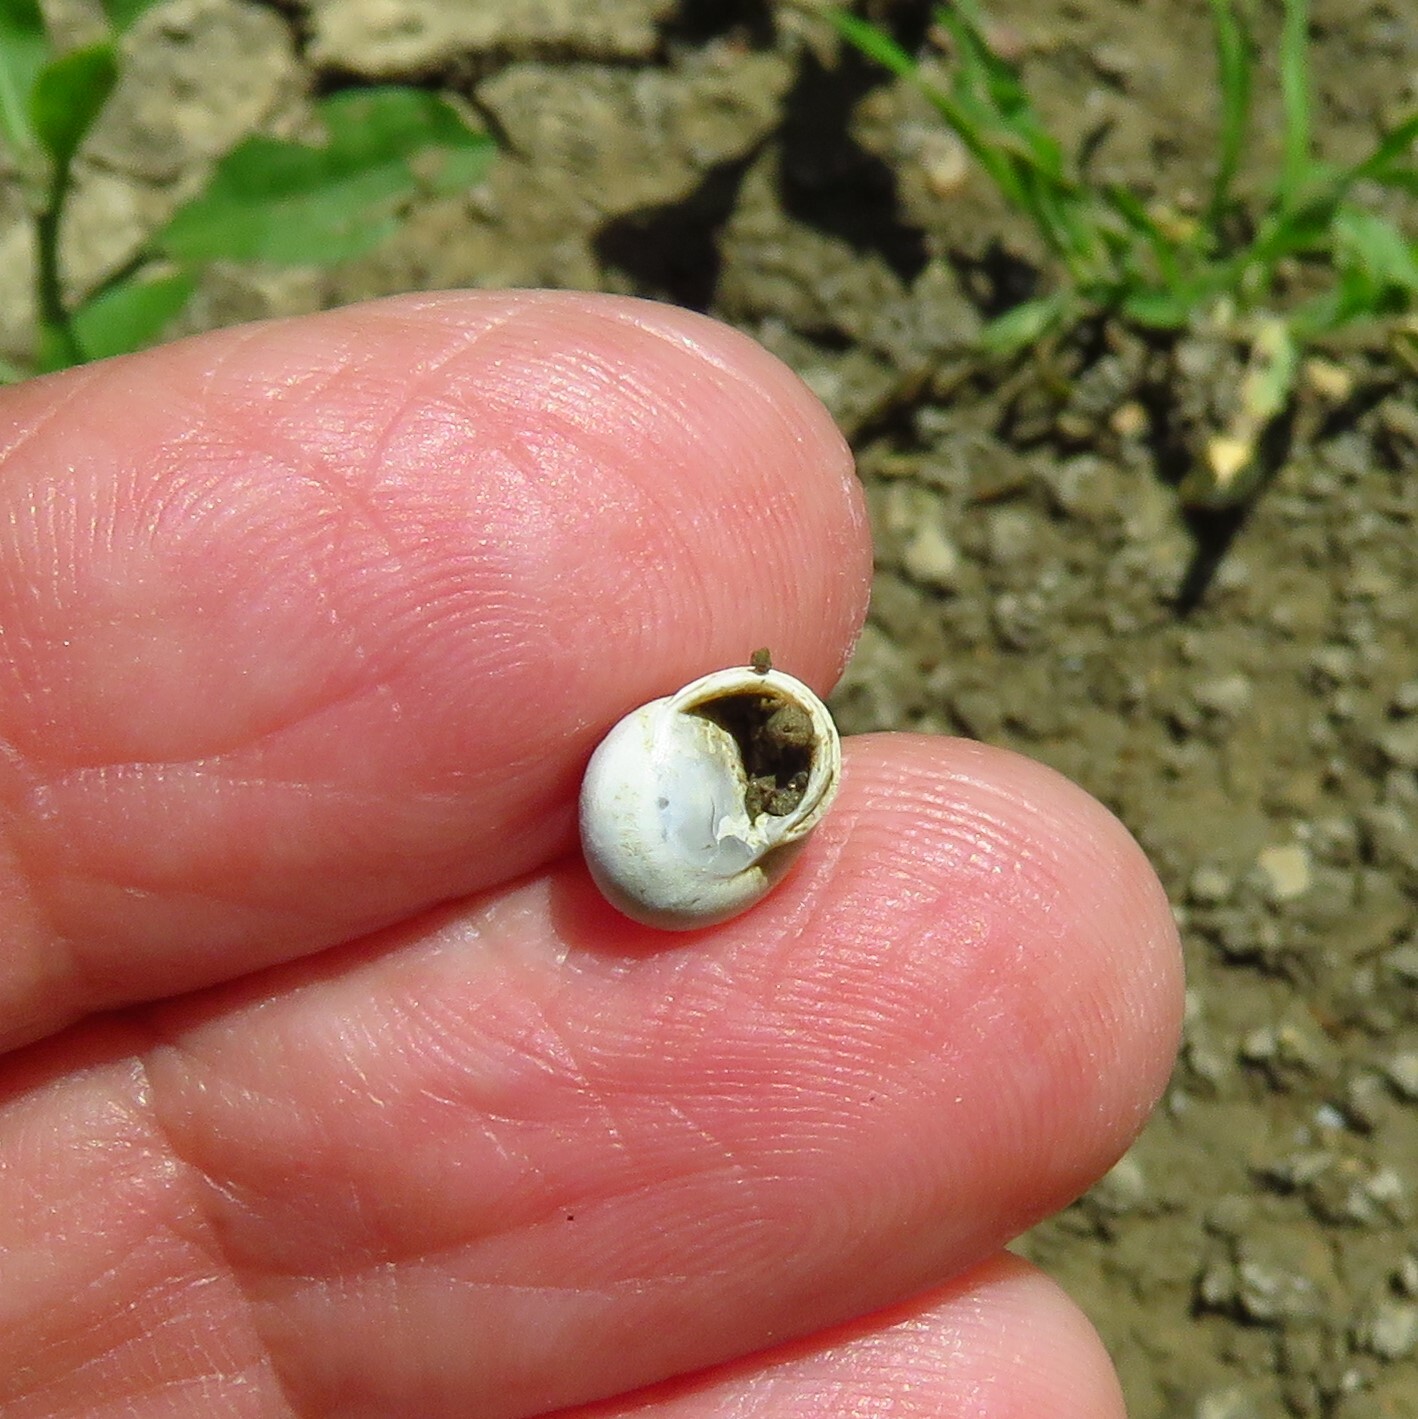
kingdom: Animalia
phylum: Mollusca
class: Gastropoda
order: Cycloneritida
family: Helicinidae
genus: Helicina
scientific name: Helicina orbiculata
